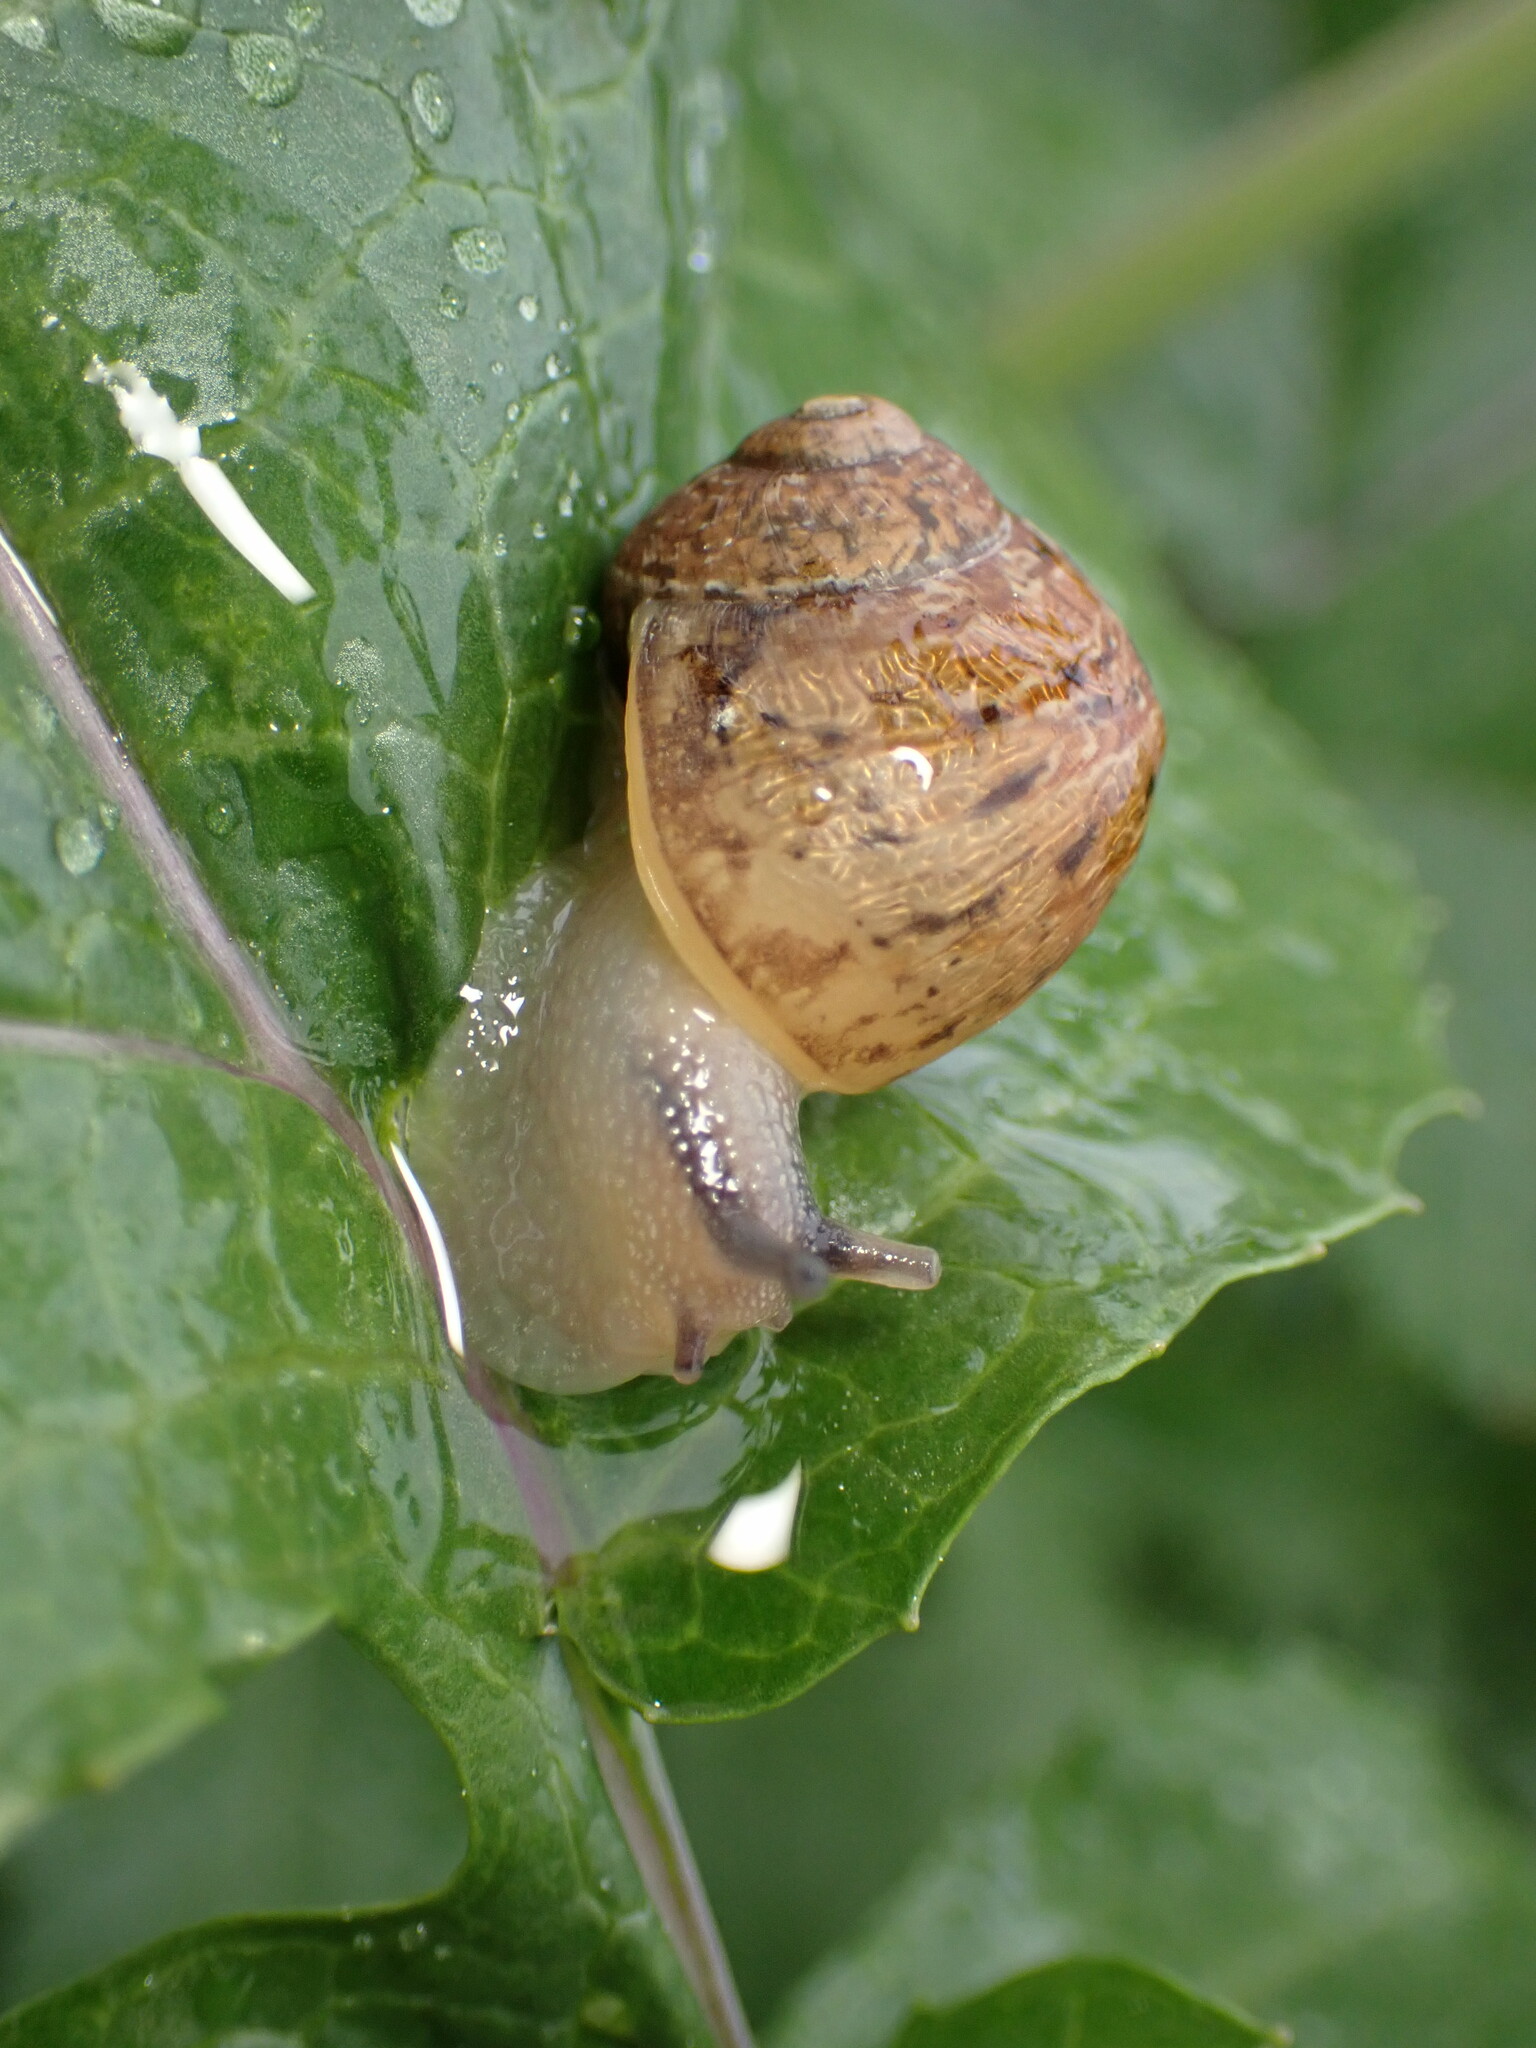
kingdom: Animalia
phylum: Mollusca
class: Gastropoda
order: Stylommatophora
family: Helicidae
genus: Cornu
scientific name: Cornu aspersum
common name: Brown garden snail
